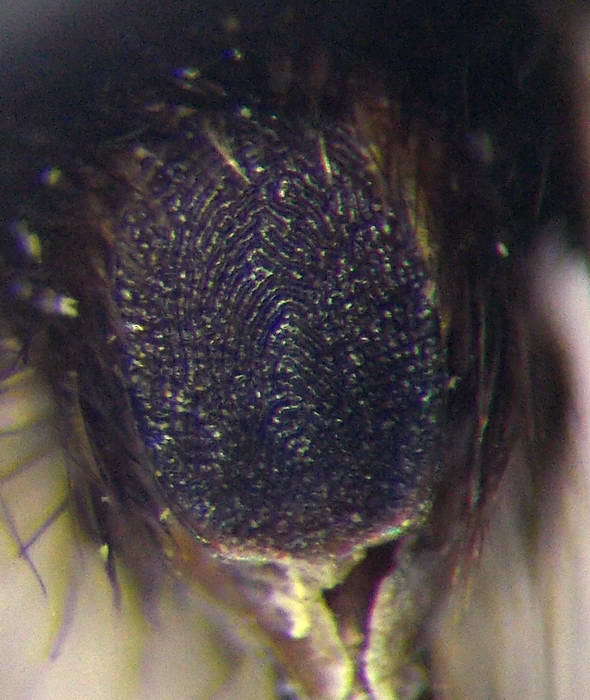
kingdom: Animalia
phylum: Arthropoda
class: Insecta
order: Hymenoptera
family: Mutillidae
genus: Nemka
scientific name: Nemka viduata
